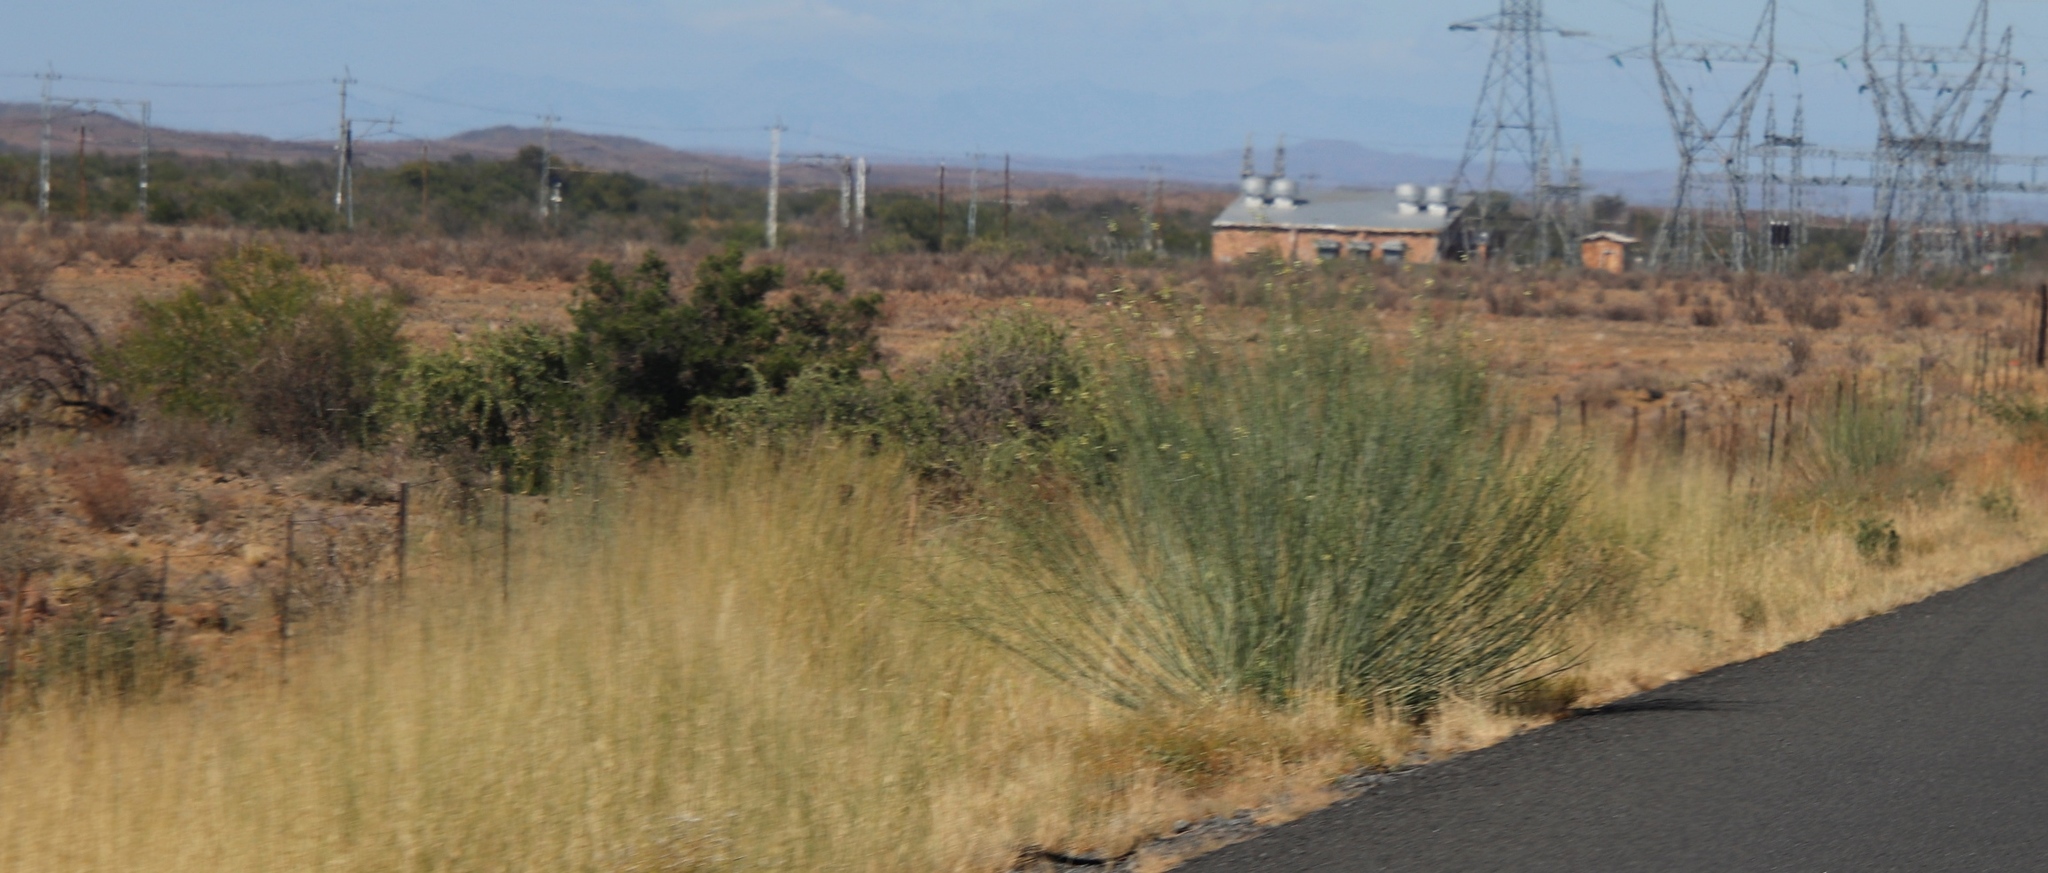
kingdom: Plantae
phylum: Tracheophyta
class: Magnoliopsida
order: Gentianales
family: Apocynaceae
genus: Gomphocarpus
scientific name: Gomphocarpus filiformis
